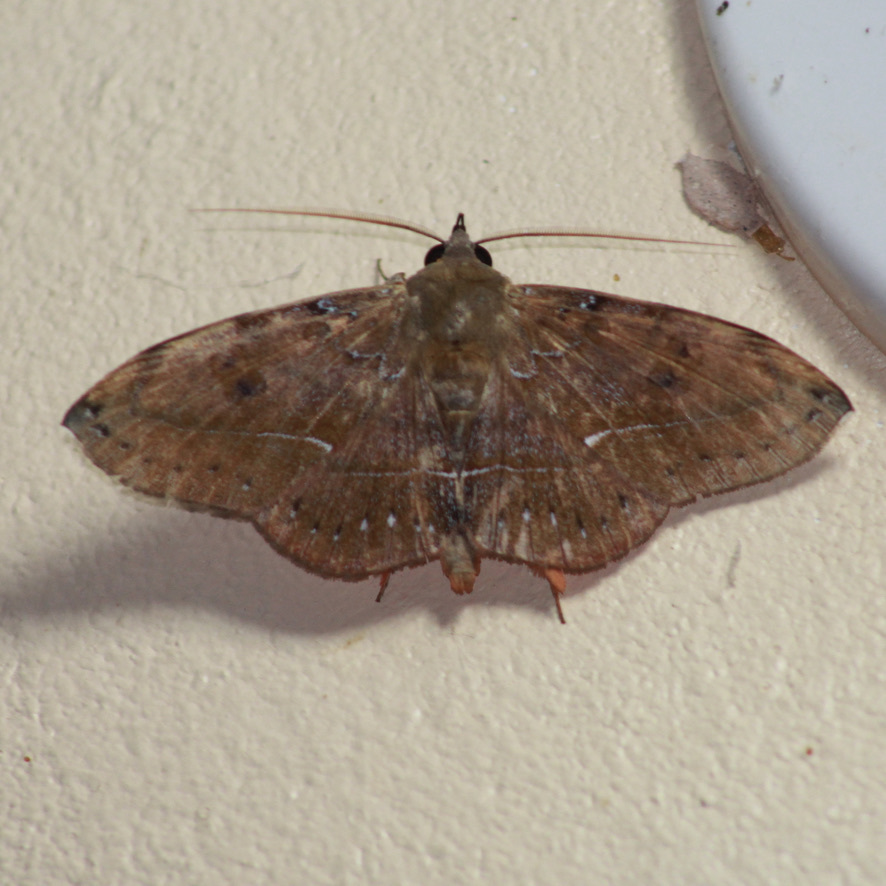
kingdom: Animalia
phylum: Arthropoda
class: Insecta
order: Lepidoptera
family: Erebidae
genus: Argidia
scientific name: Argidia calus
